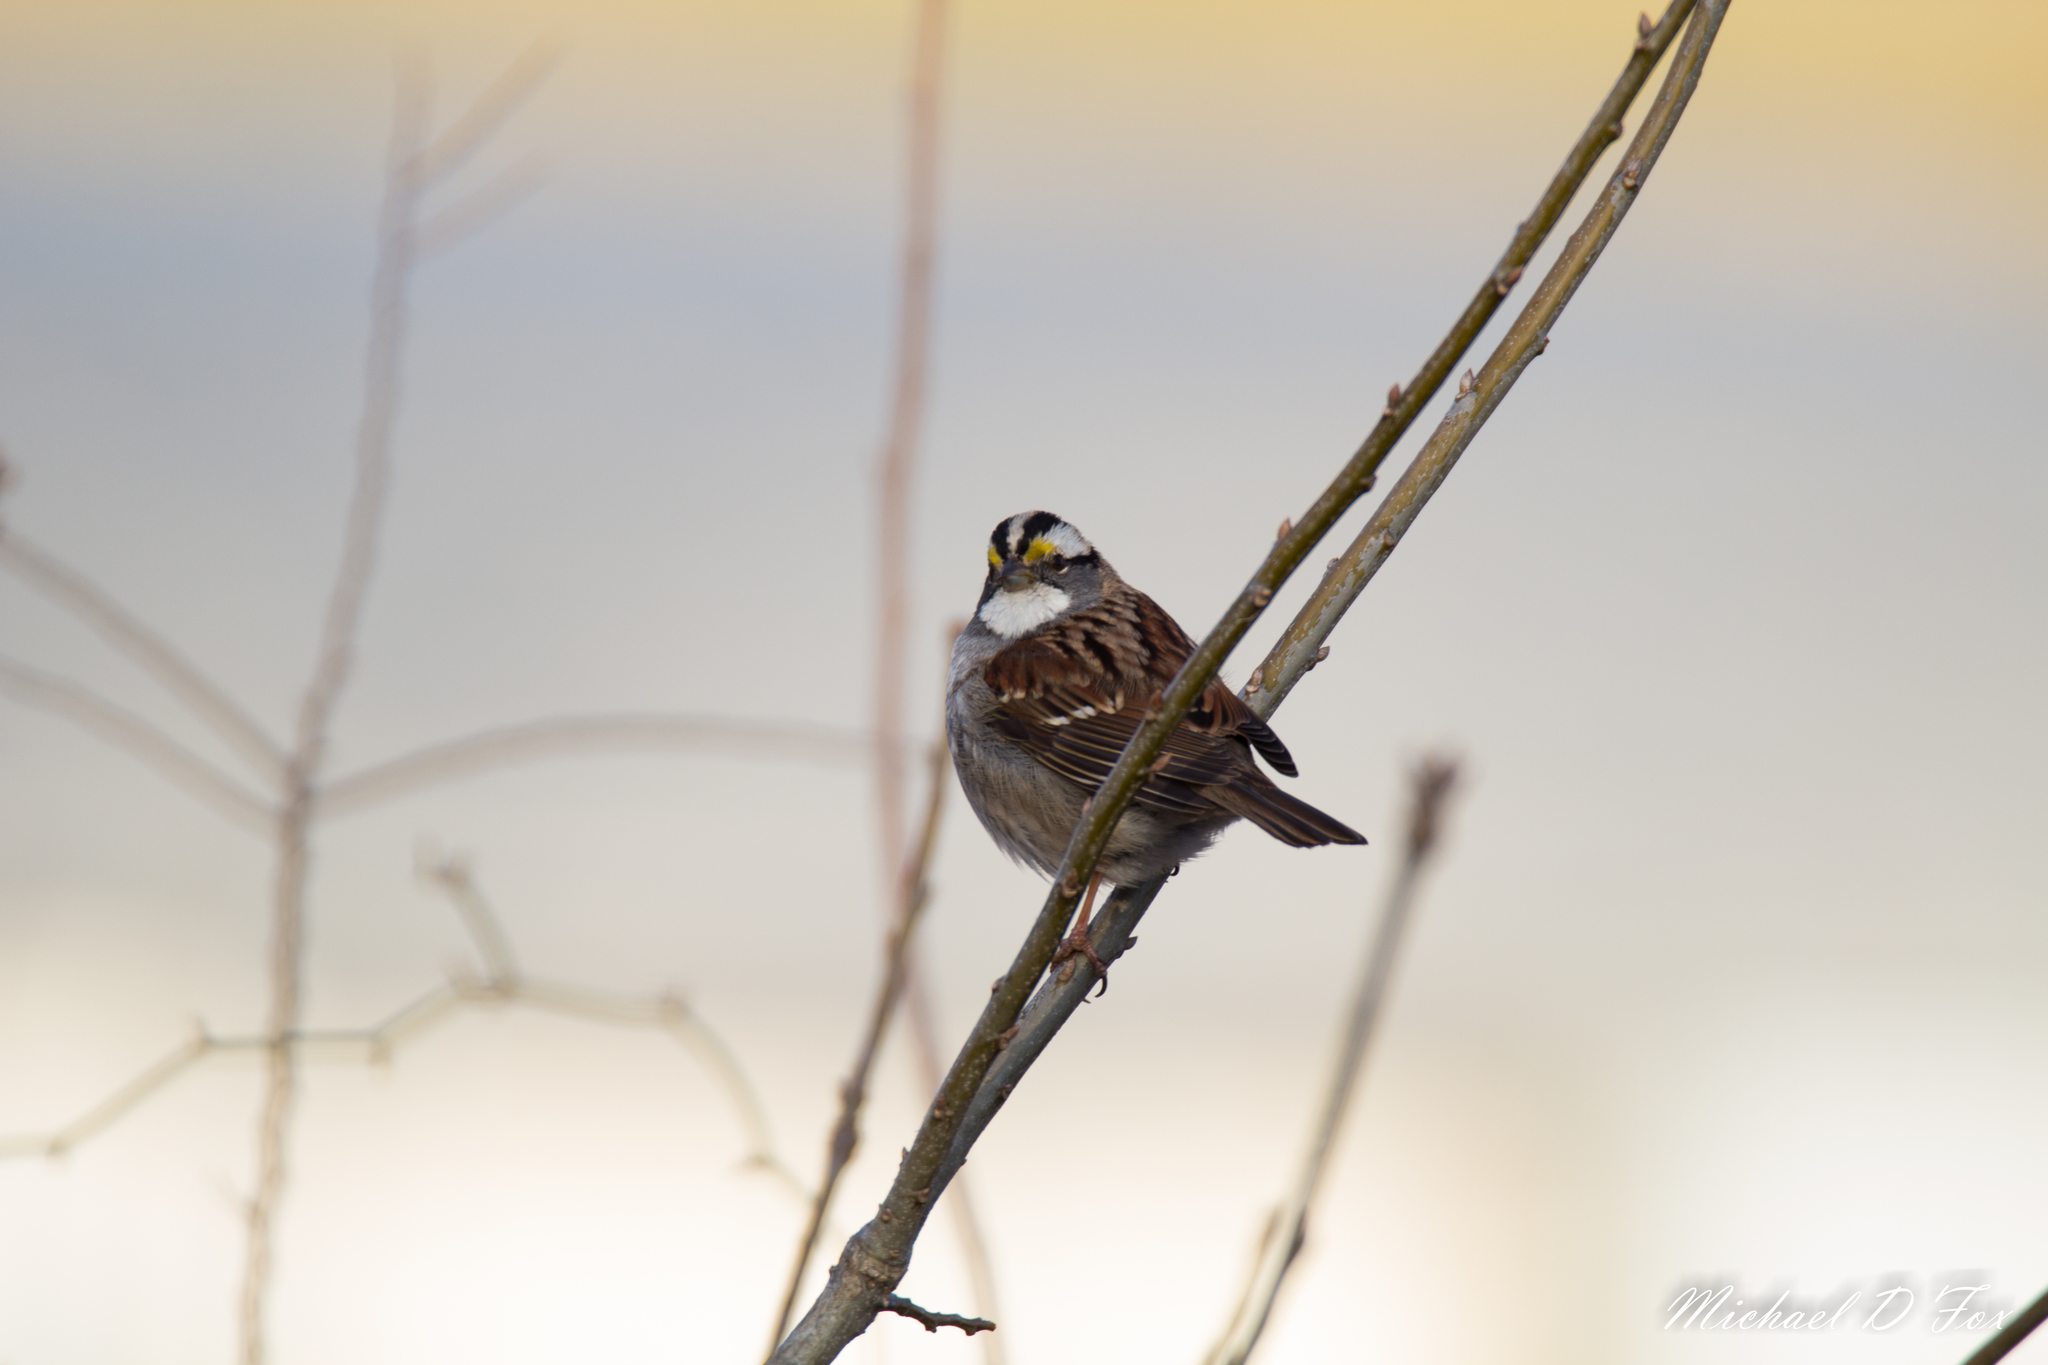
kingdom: Animalia
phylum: Chordata
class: Aves
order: Passeriformes
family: Passerellidae
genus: Zonotrichia
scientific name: Zonotrichia albicollis
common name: White-throated sparrow
